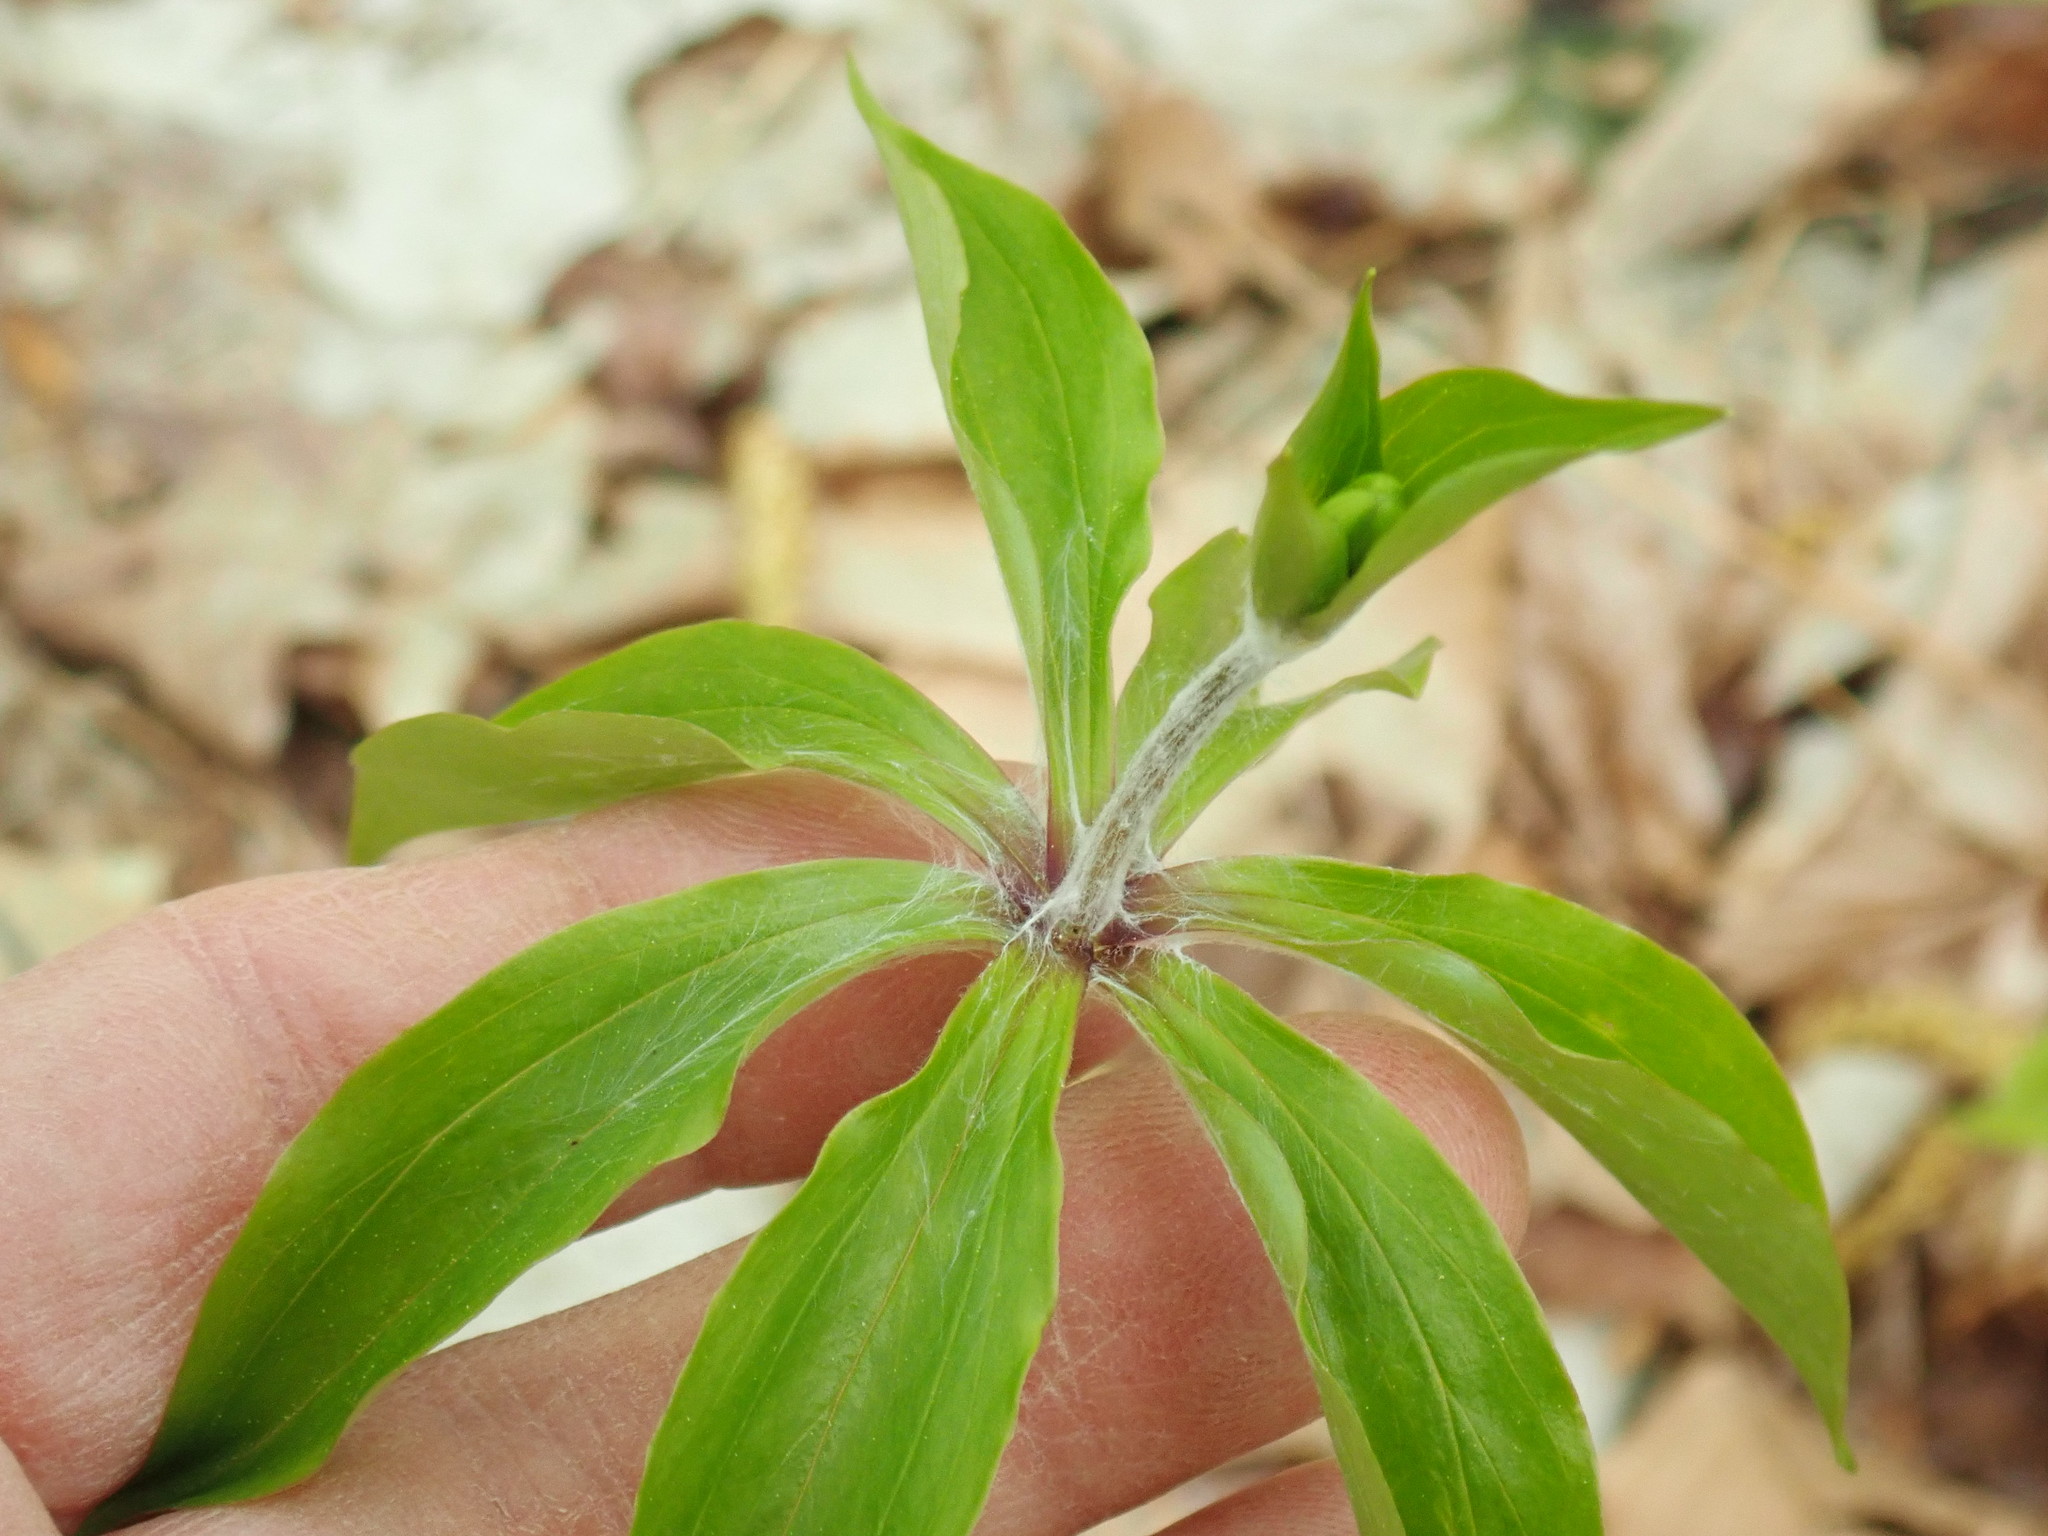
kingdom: Plantae
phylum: Tracheophyta
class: Liliopsida
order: Liliales
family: Liliaceae
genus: Medeola
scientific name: Medeola virginiana
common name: Indian cucumber-root
